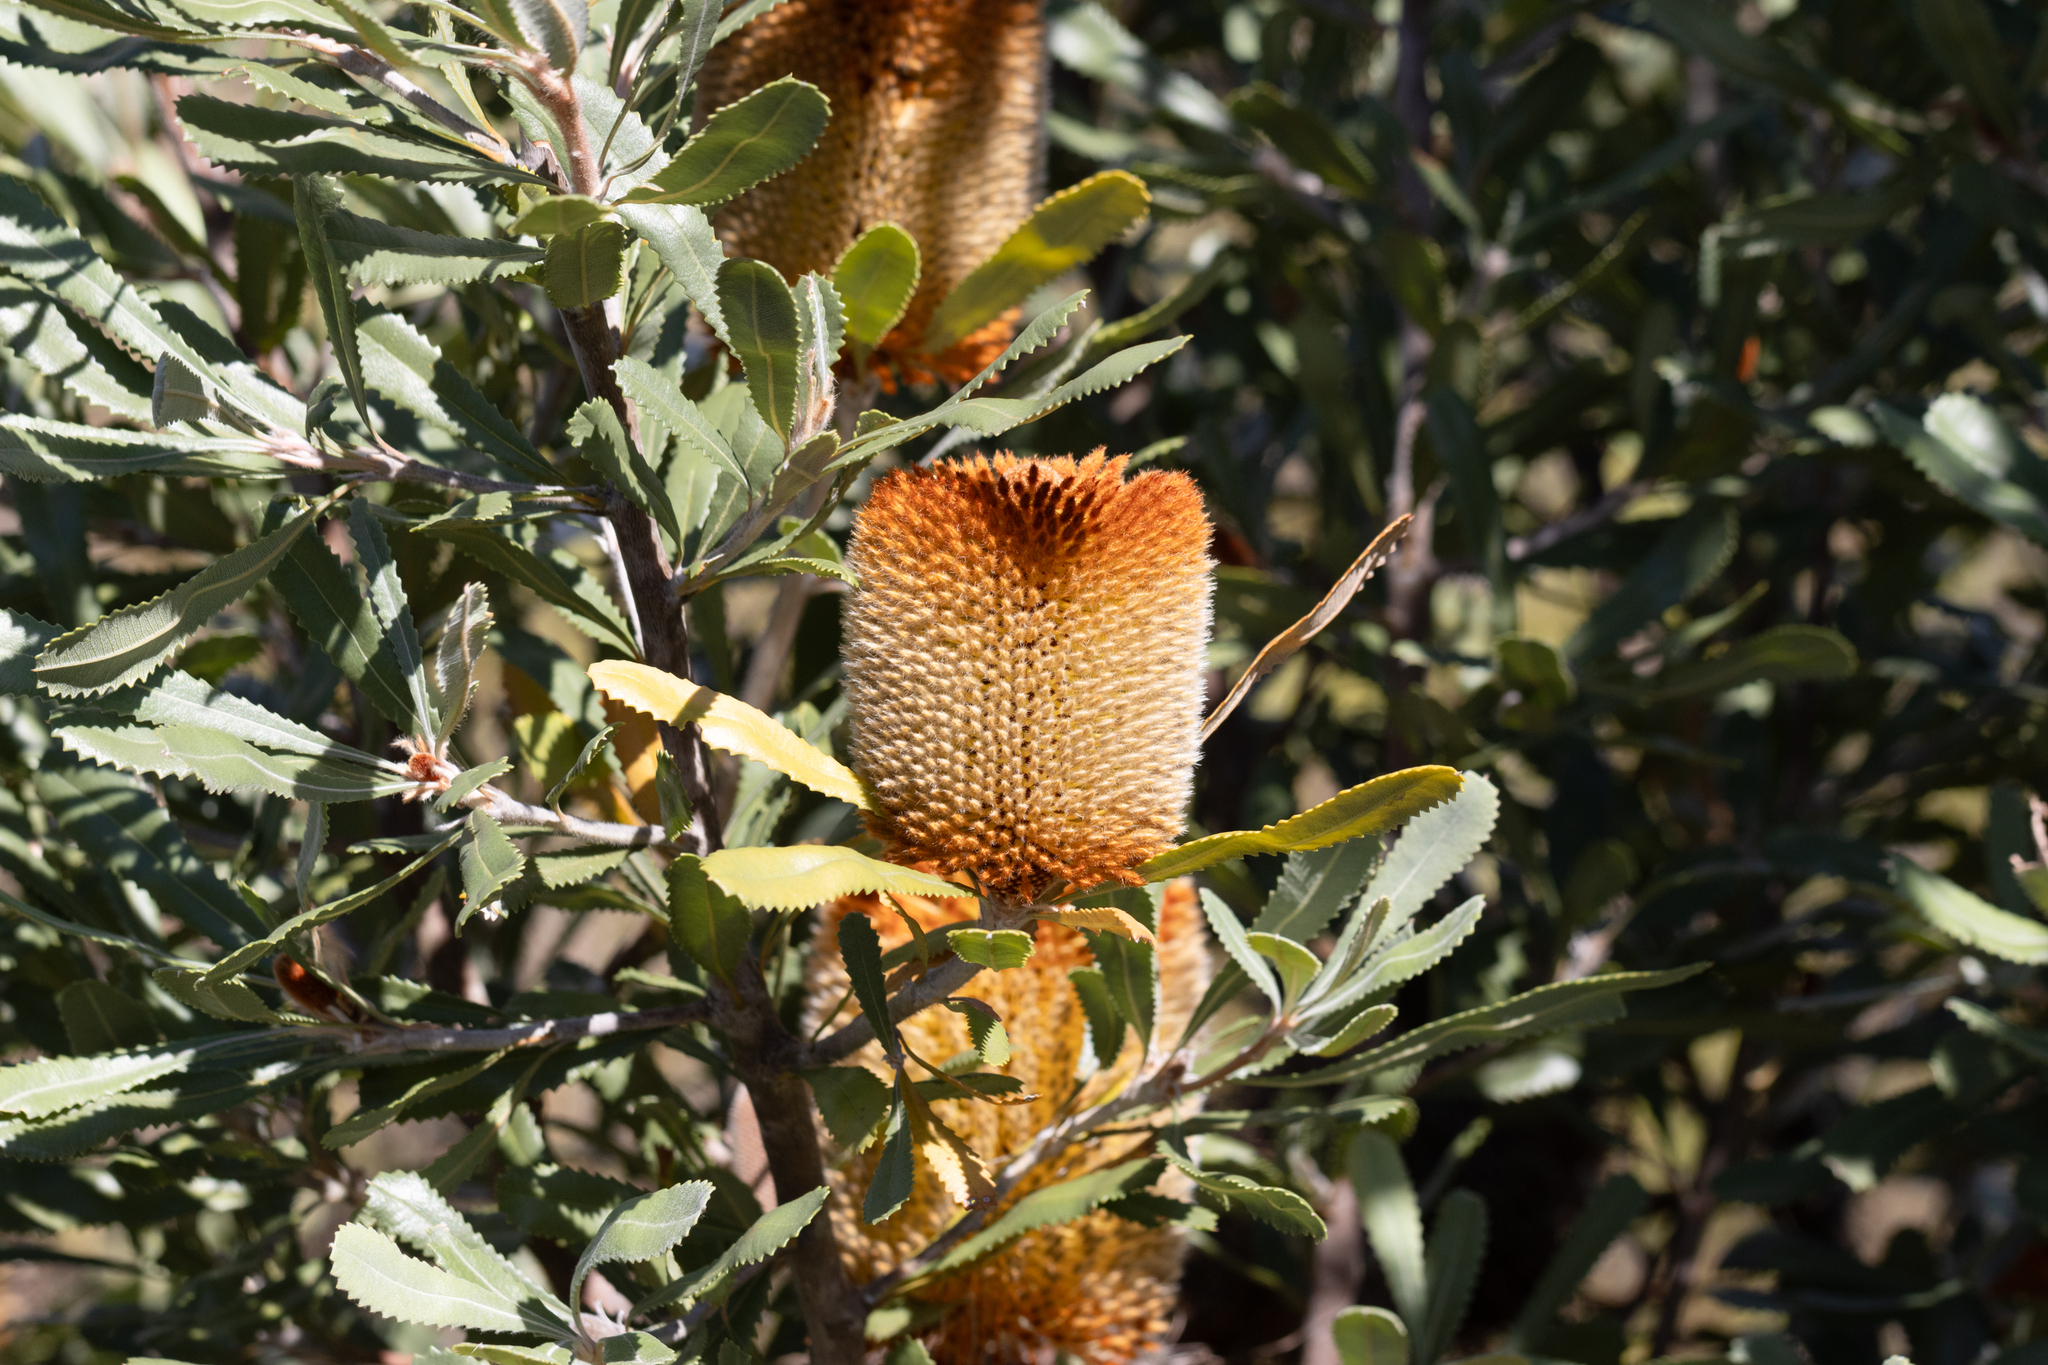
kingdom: Plantae
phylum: Tracheophyta
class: Magnoliopsida
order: Proteales
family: Proteaceae
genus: Banksia
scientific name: Banksia ornata
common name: Desert banksia
